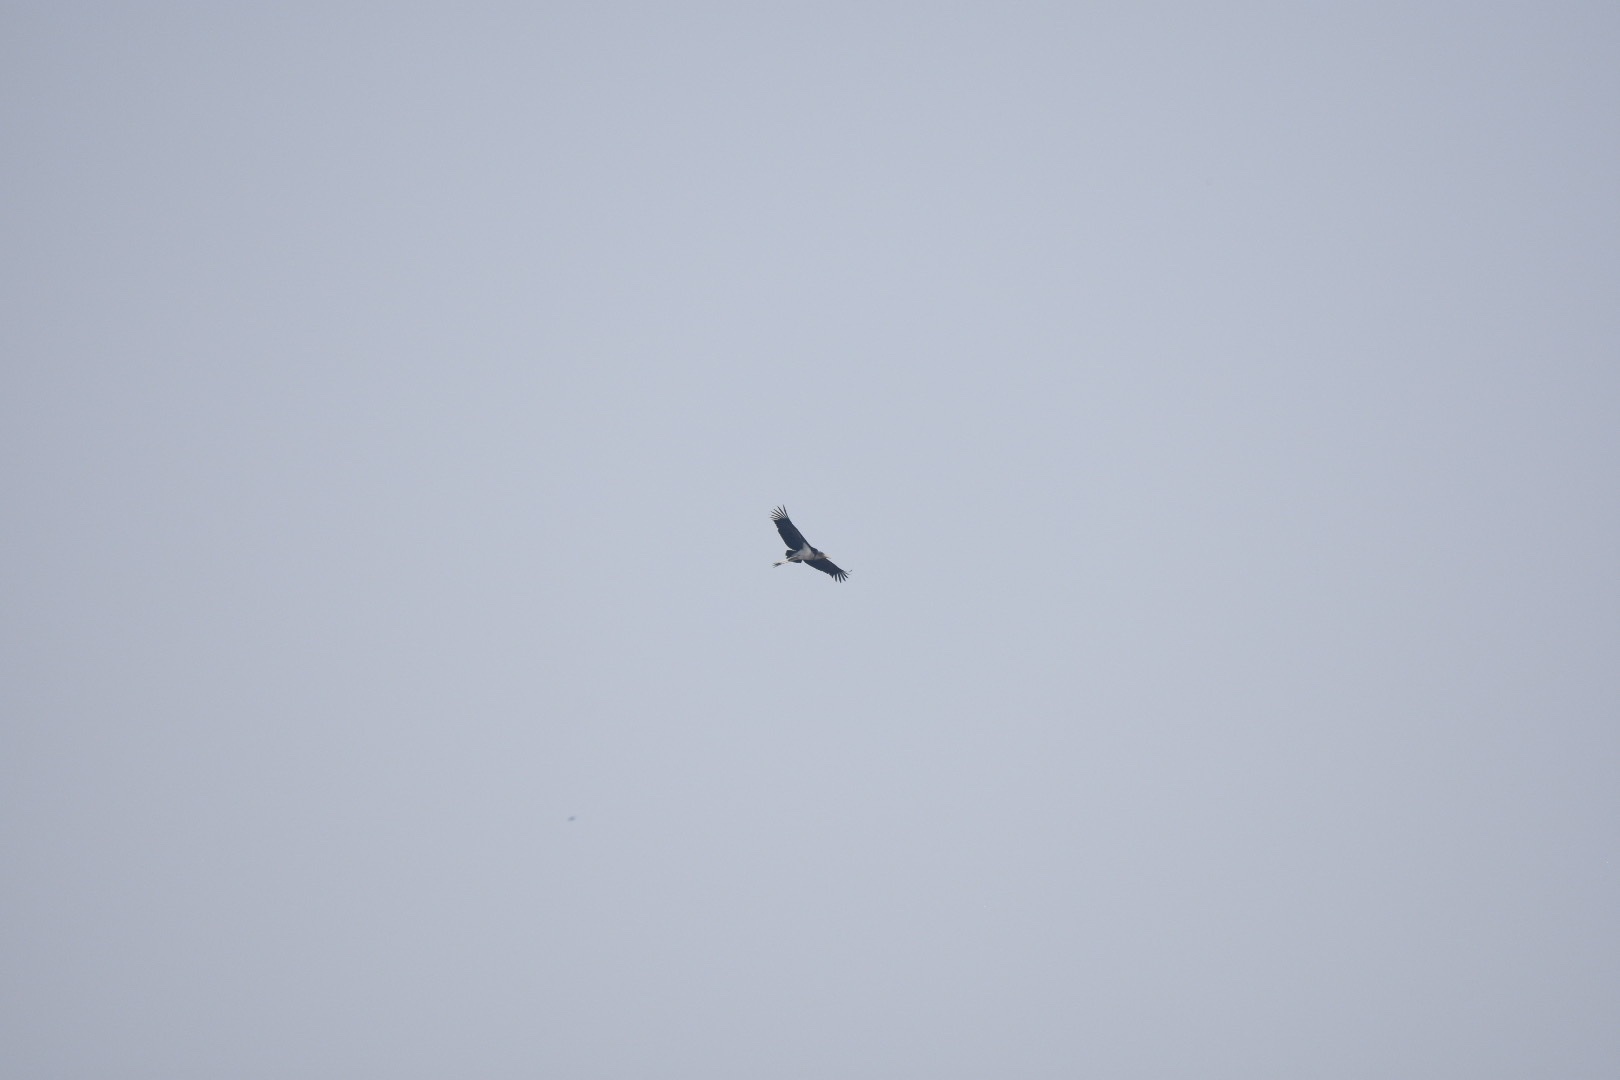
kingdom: Animalia
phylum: Chordata
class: Aves
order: Ciconiiformes
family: Ciconiidae
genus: Leptoptilos
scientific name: Leptoptilos crumenifer
